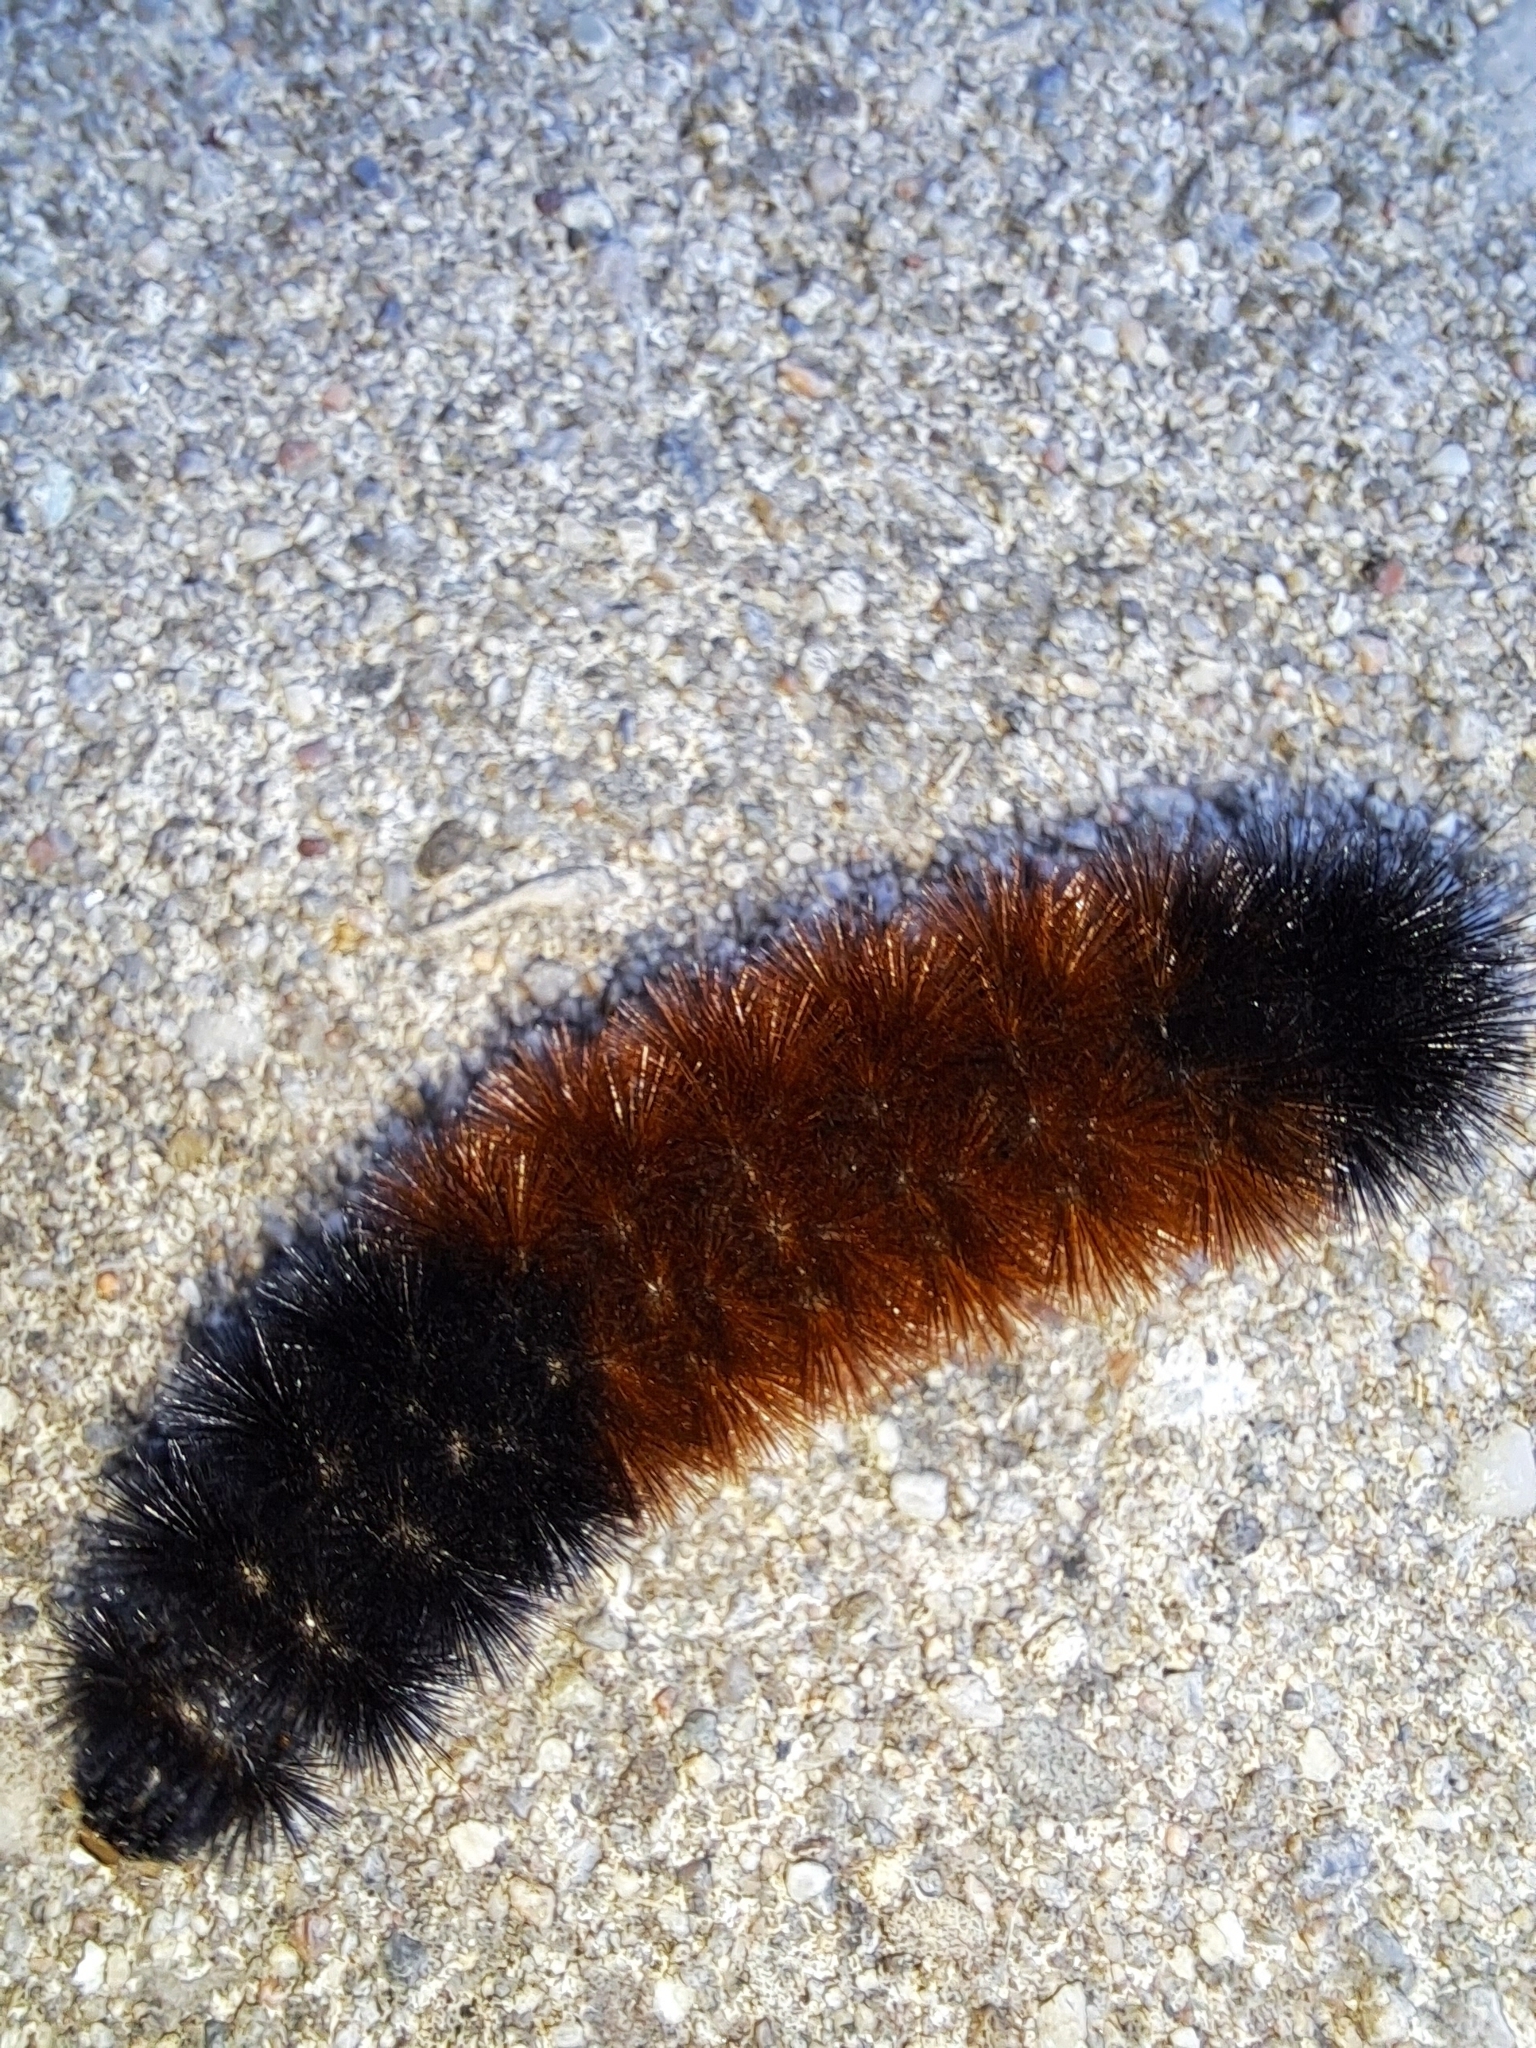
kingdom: Animalia
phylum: Arthropoda
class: Insecta
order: Lepidoptera
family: Erebidae
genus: Pyrrharctia
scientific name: Pyrrharctia isabella
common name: Isabella tiger moth
